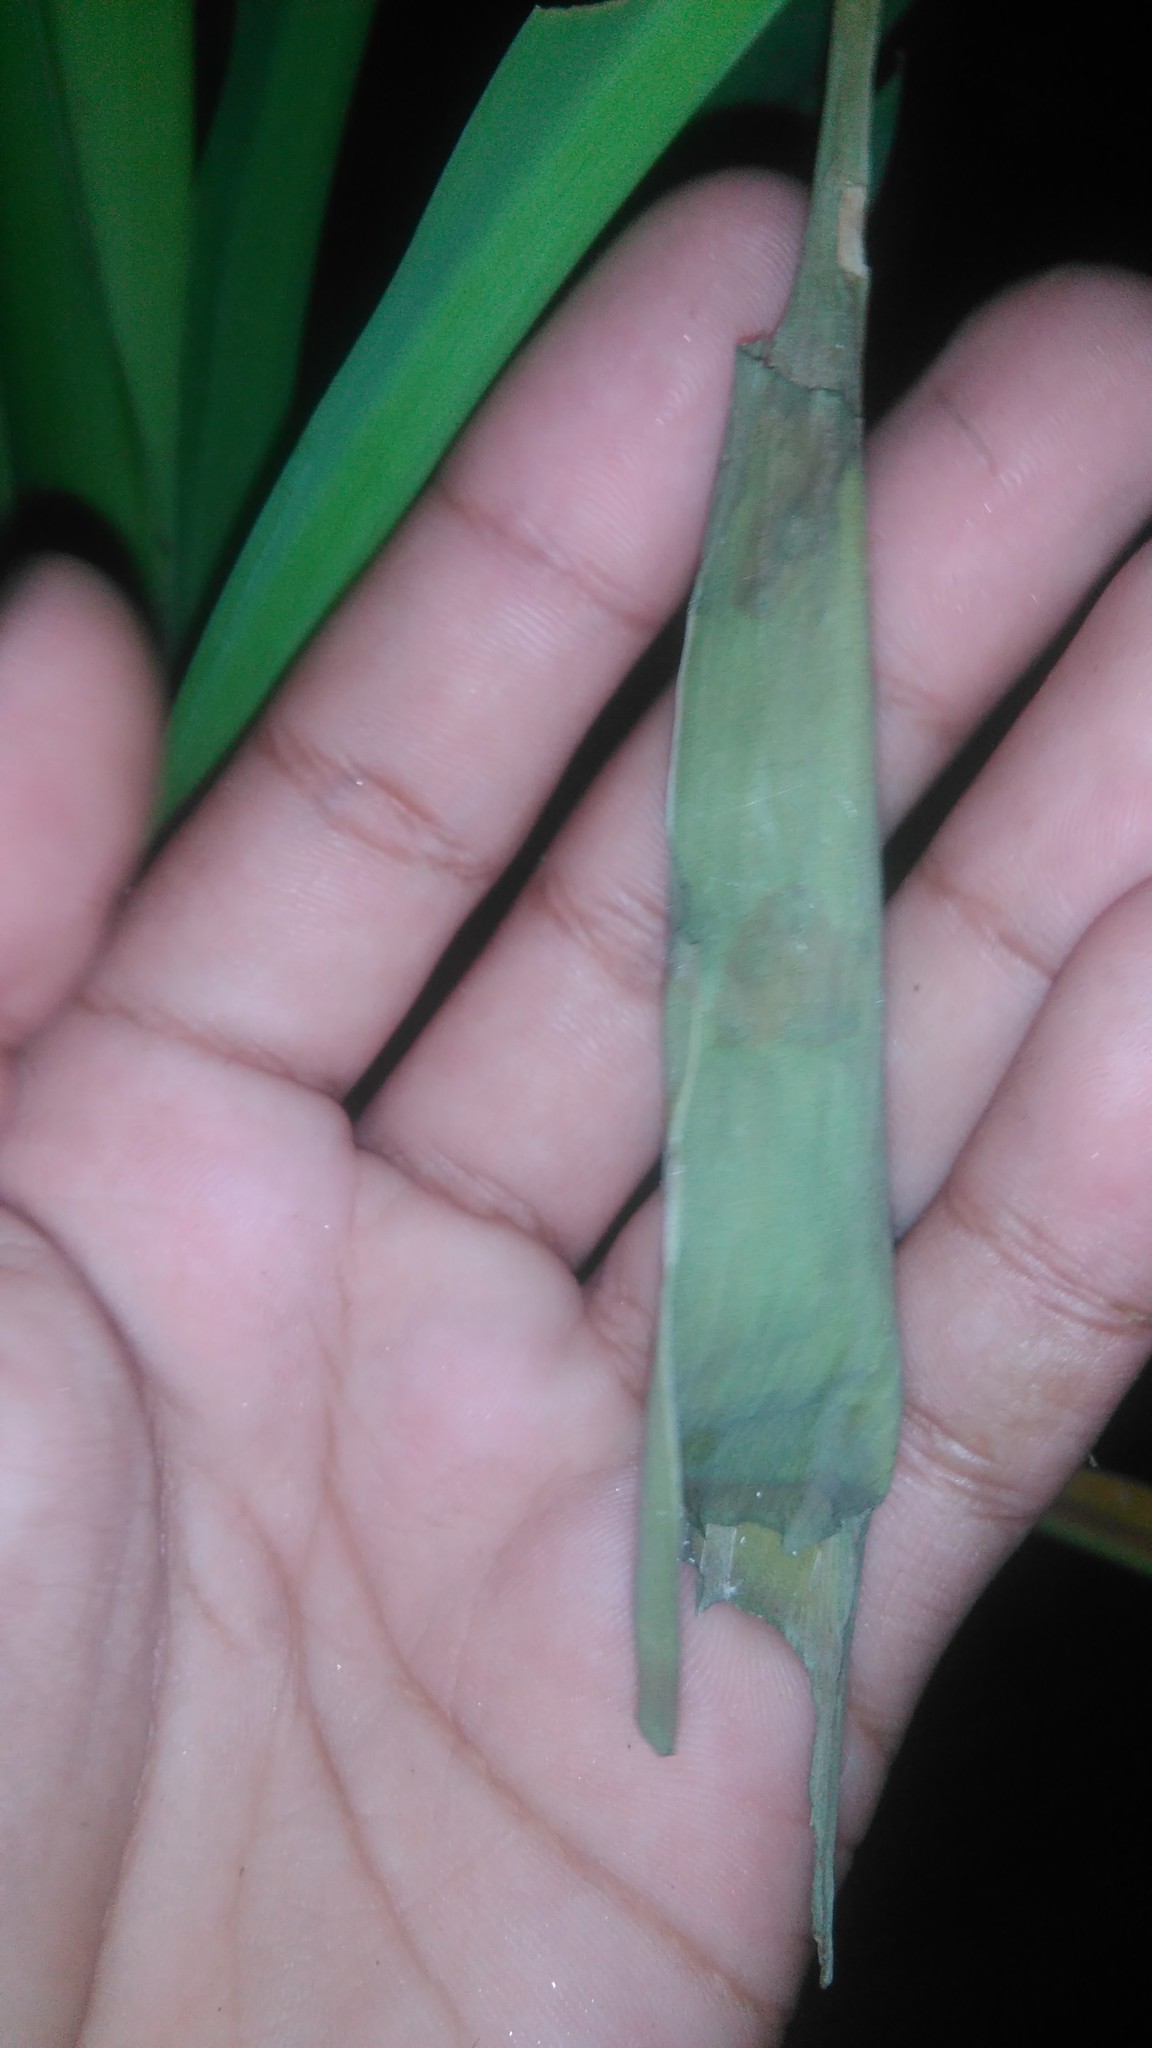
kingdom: Animalia
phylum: Arthropoda
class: Insecta
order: Lepidoptera
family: Hesperiidae
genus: Quinta
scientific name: Quinta cannae
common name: Canna skipper
